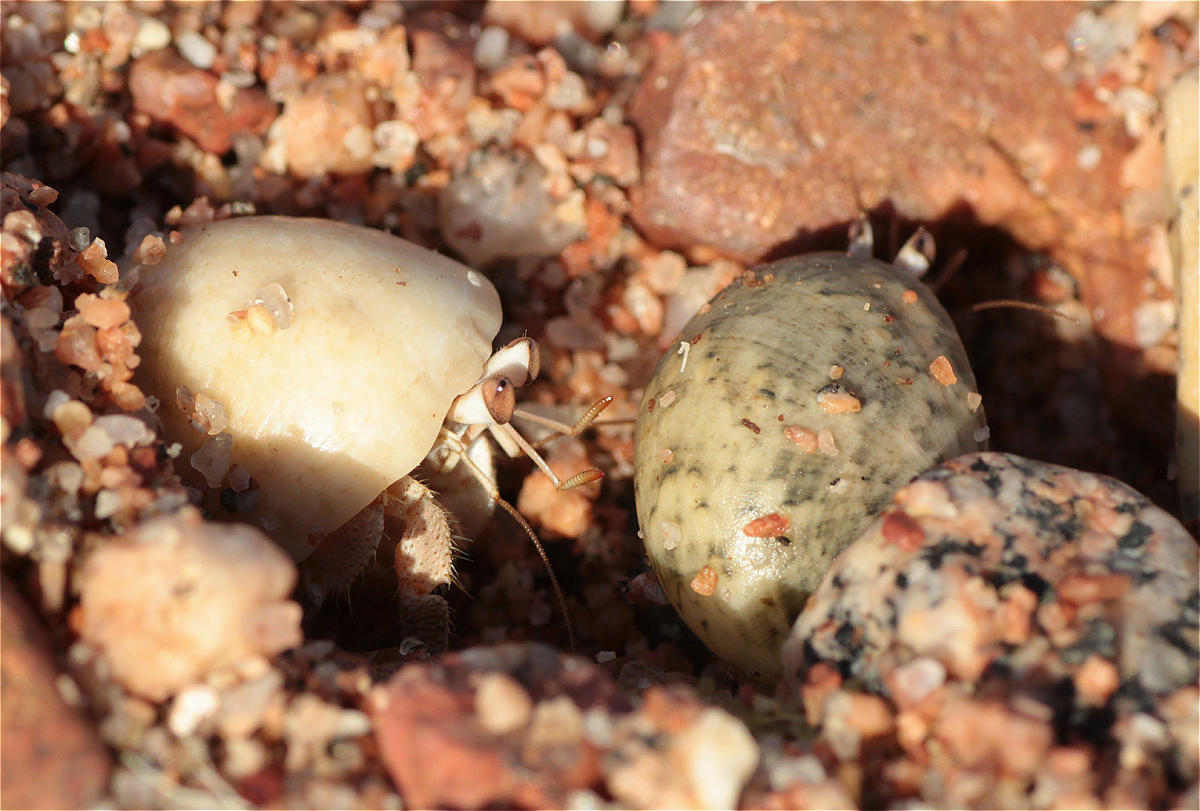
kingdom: Animalia
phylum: Arthropoda
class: Malacostraca
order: Decapoda
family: Coenobitidae
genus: Coenobita
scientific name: Coenobita scaevola
